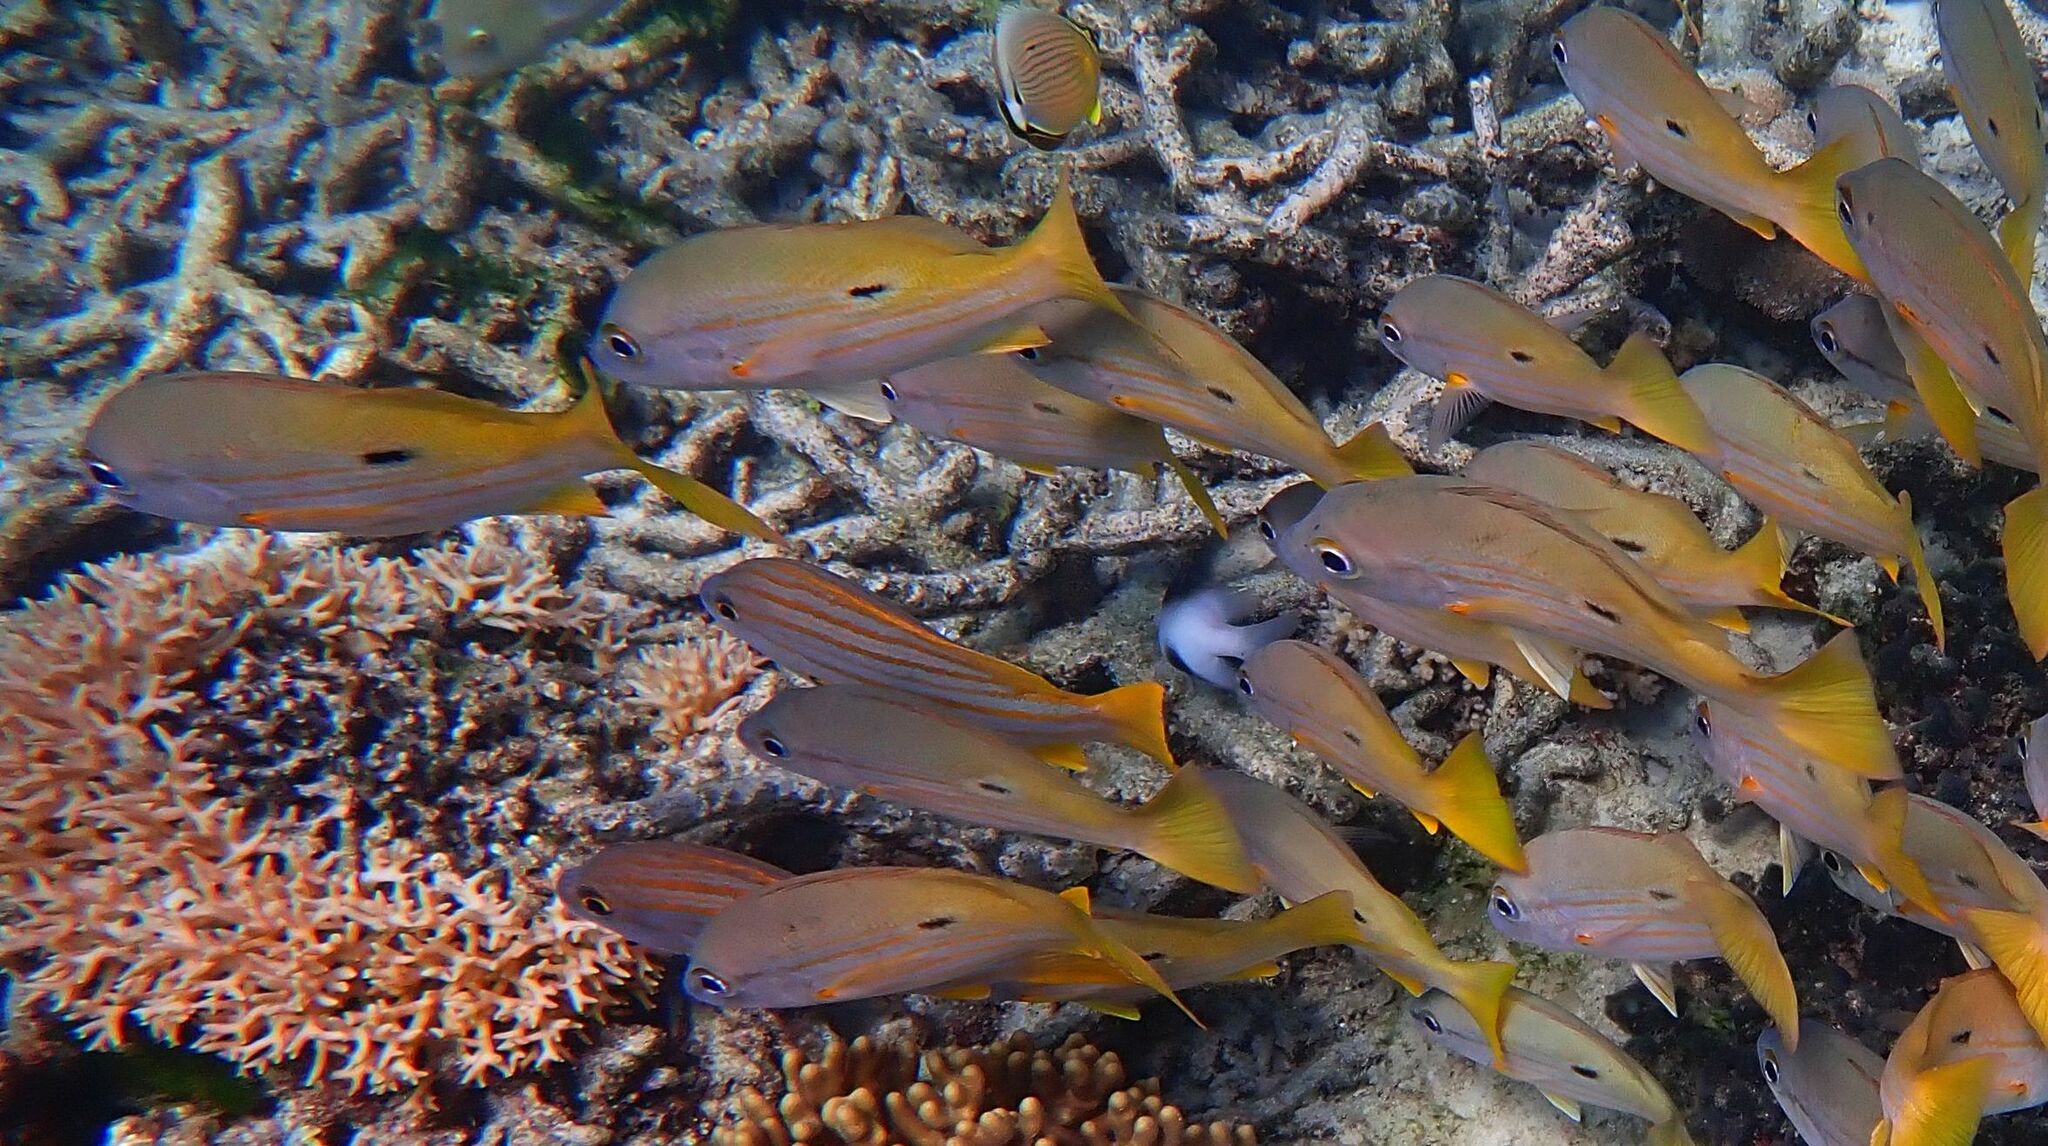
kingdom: Animalia
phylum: Chordata
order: Perciformes
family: Lutjanidae
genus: Lutjanus
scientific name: Lutjanus fulviflamma
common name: Blackspot snapper
